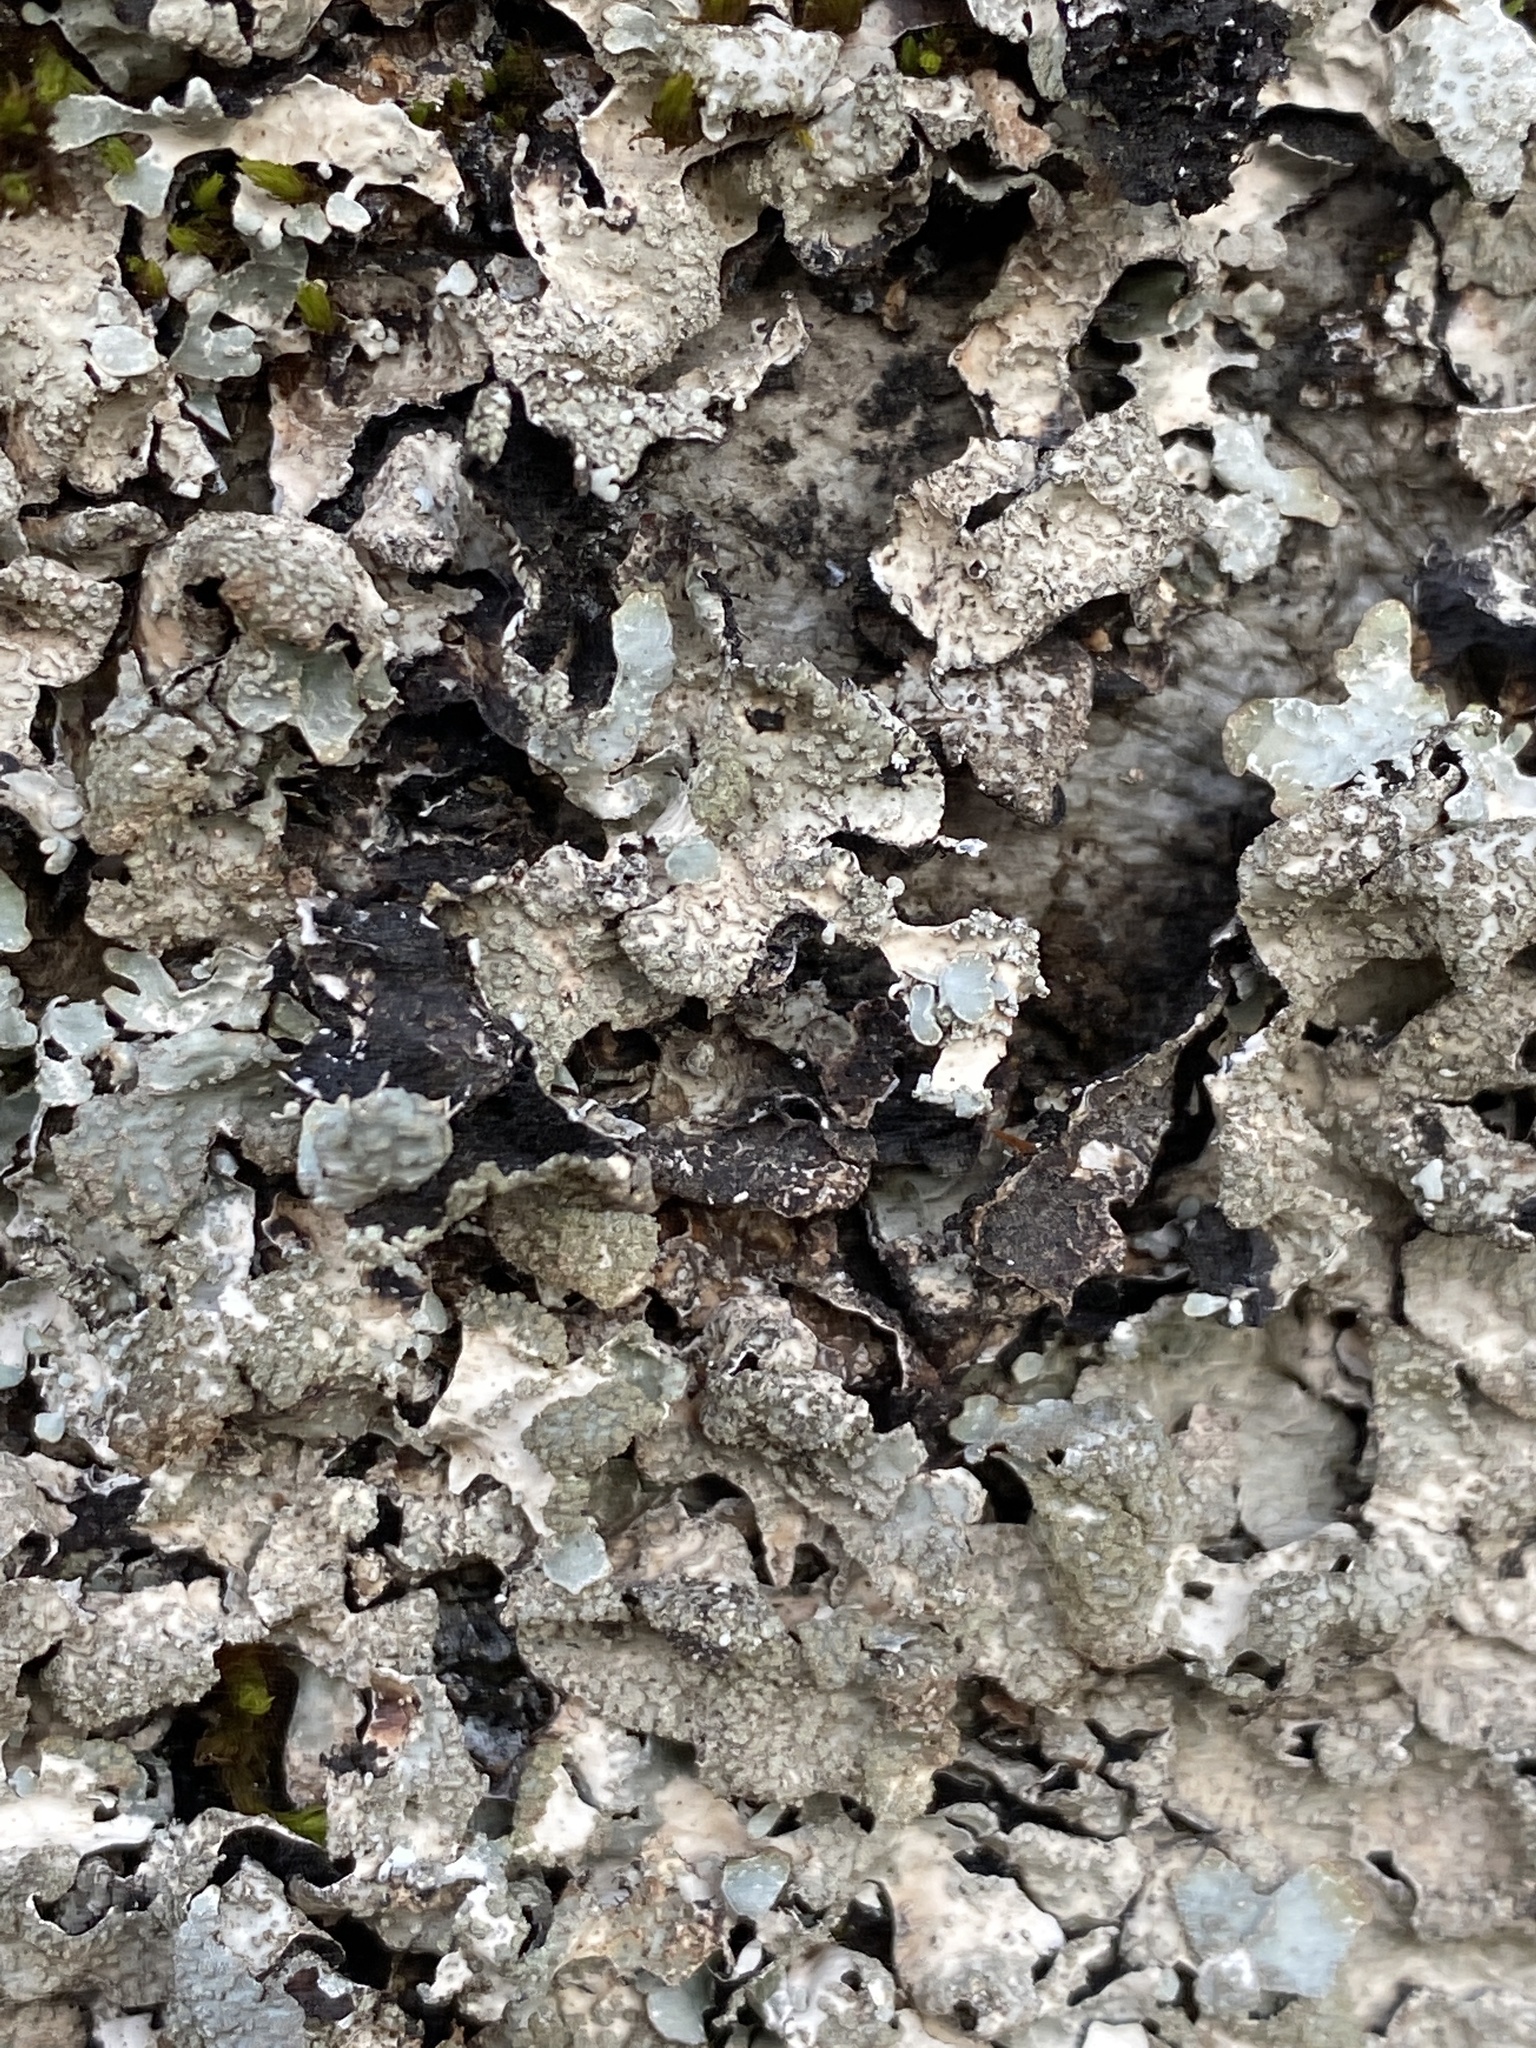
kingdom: Fungi
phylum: Ascomycota
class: Lecanoromycetes
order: Lecanorales
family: Parmeliaceae
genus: Parmelia
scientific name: Parmelia sulcata
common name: Netted shield lichen
